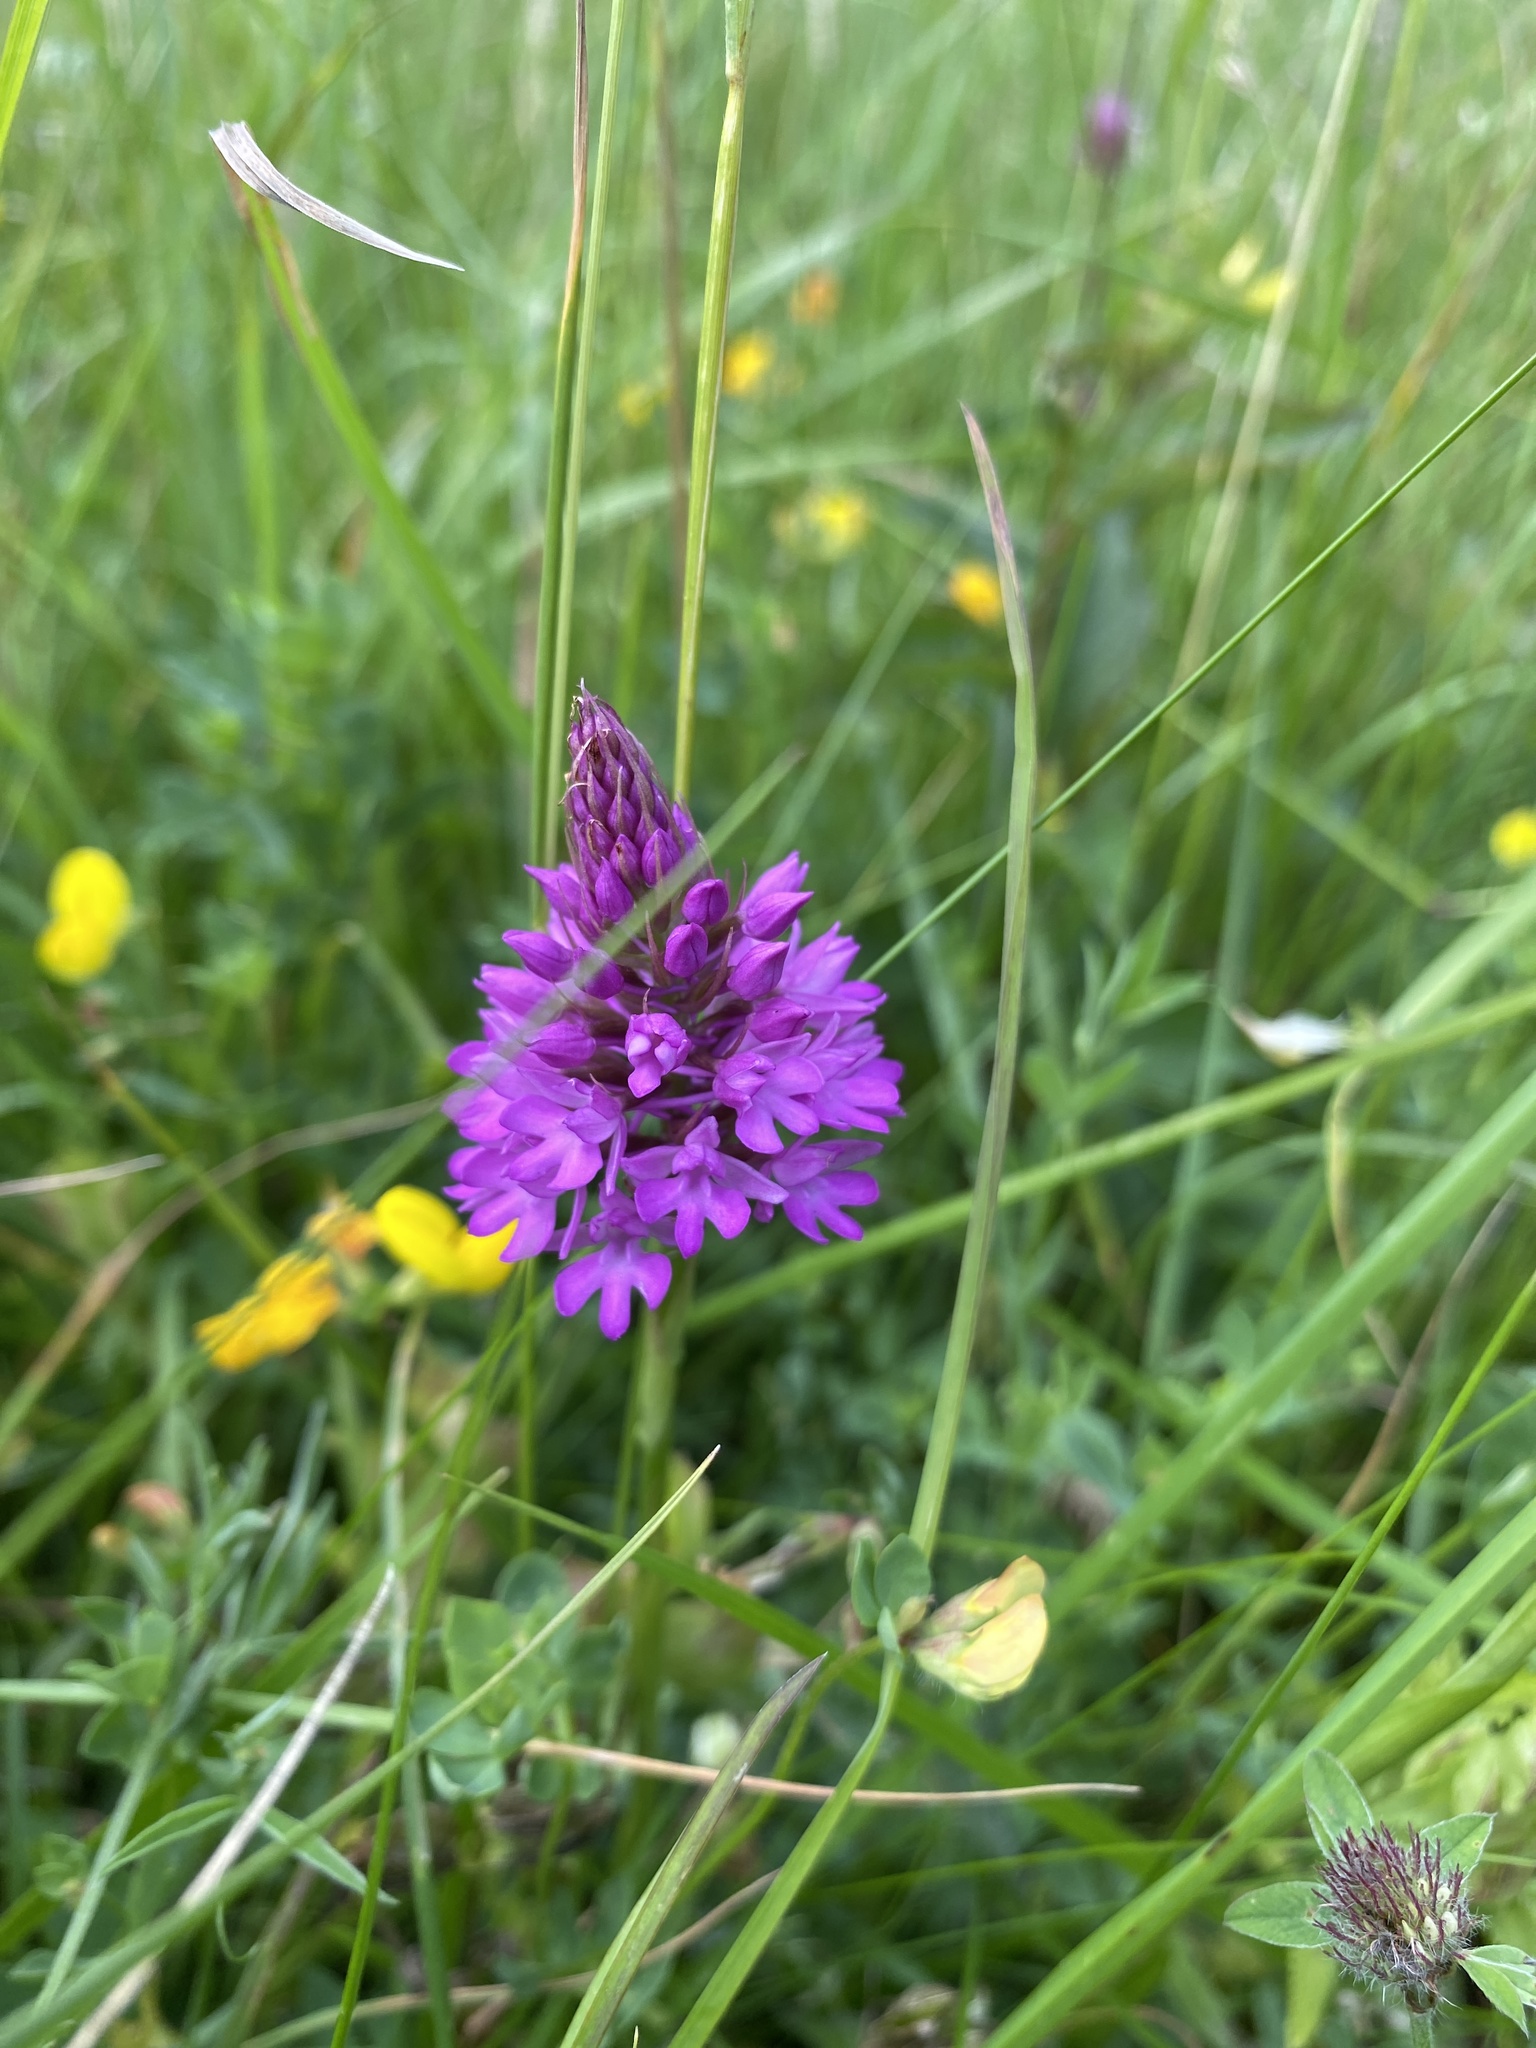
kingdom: Plantae
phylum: Tracheophyta
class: Liliopsida
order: Asparagales
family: Orchidaceae
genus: Anacamptis
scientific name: Anacamptis pyramidalis
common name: Pyramidal orchid
